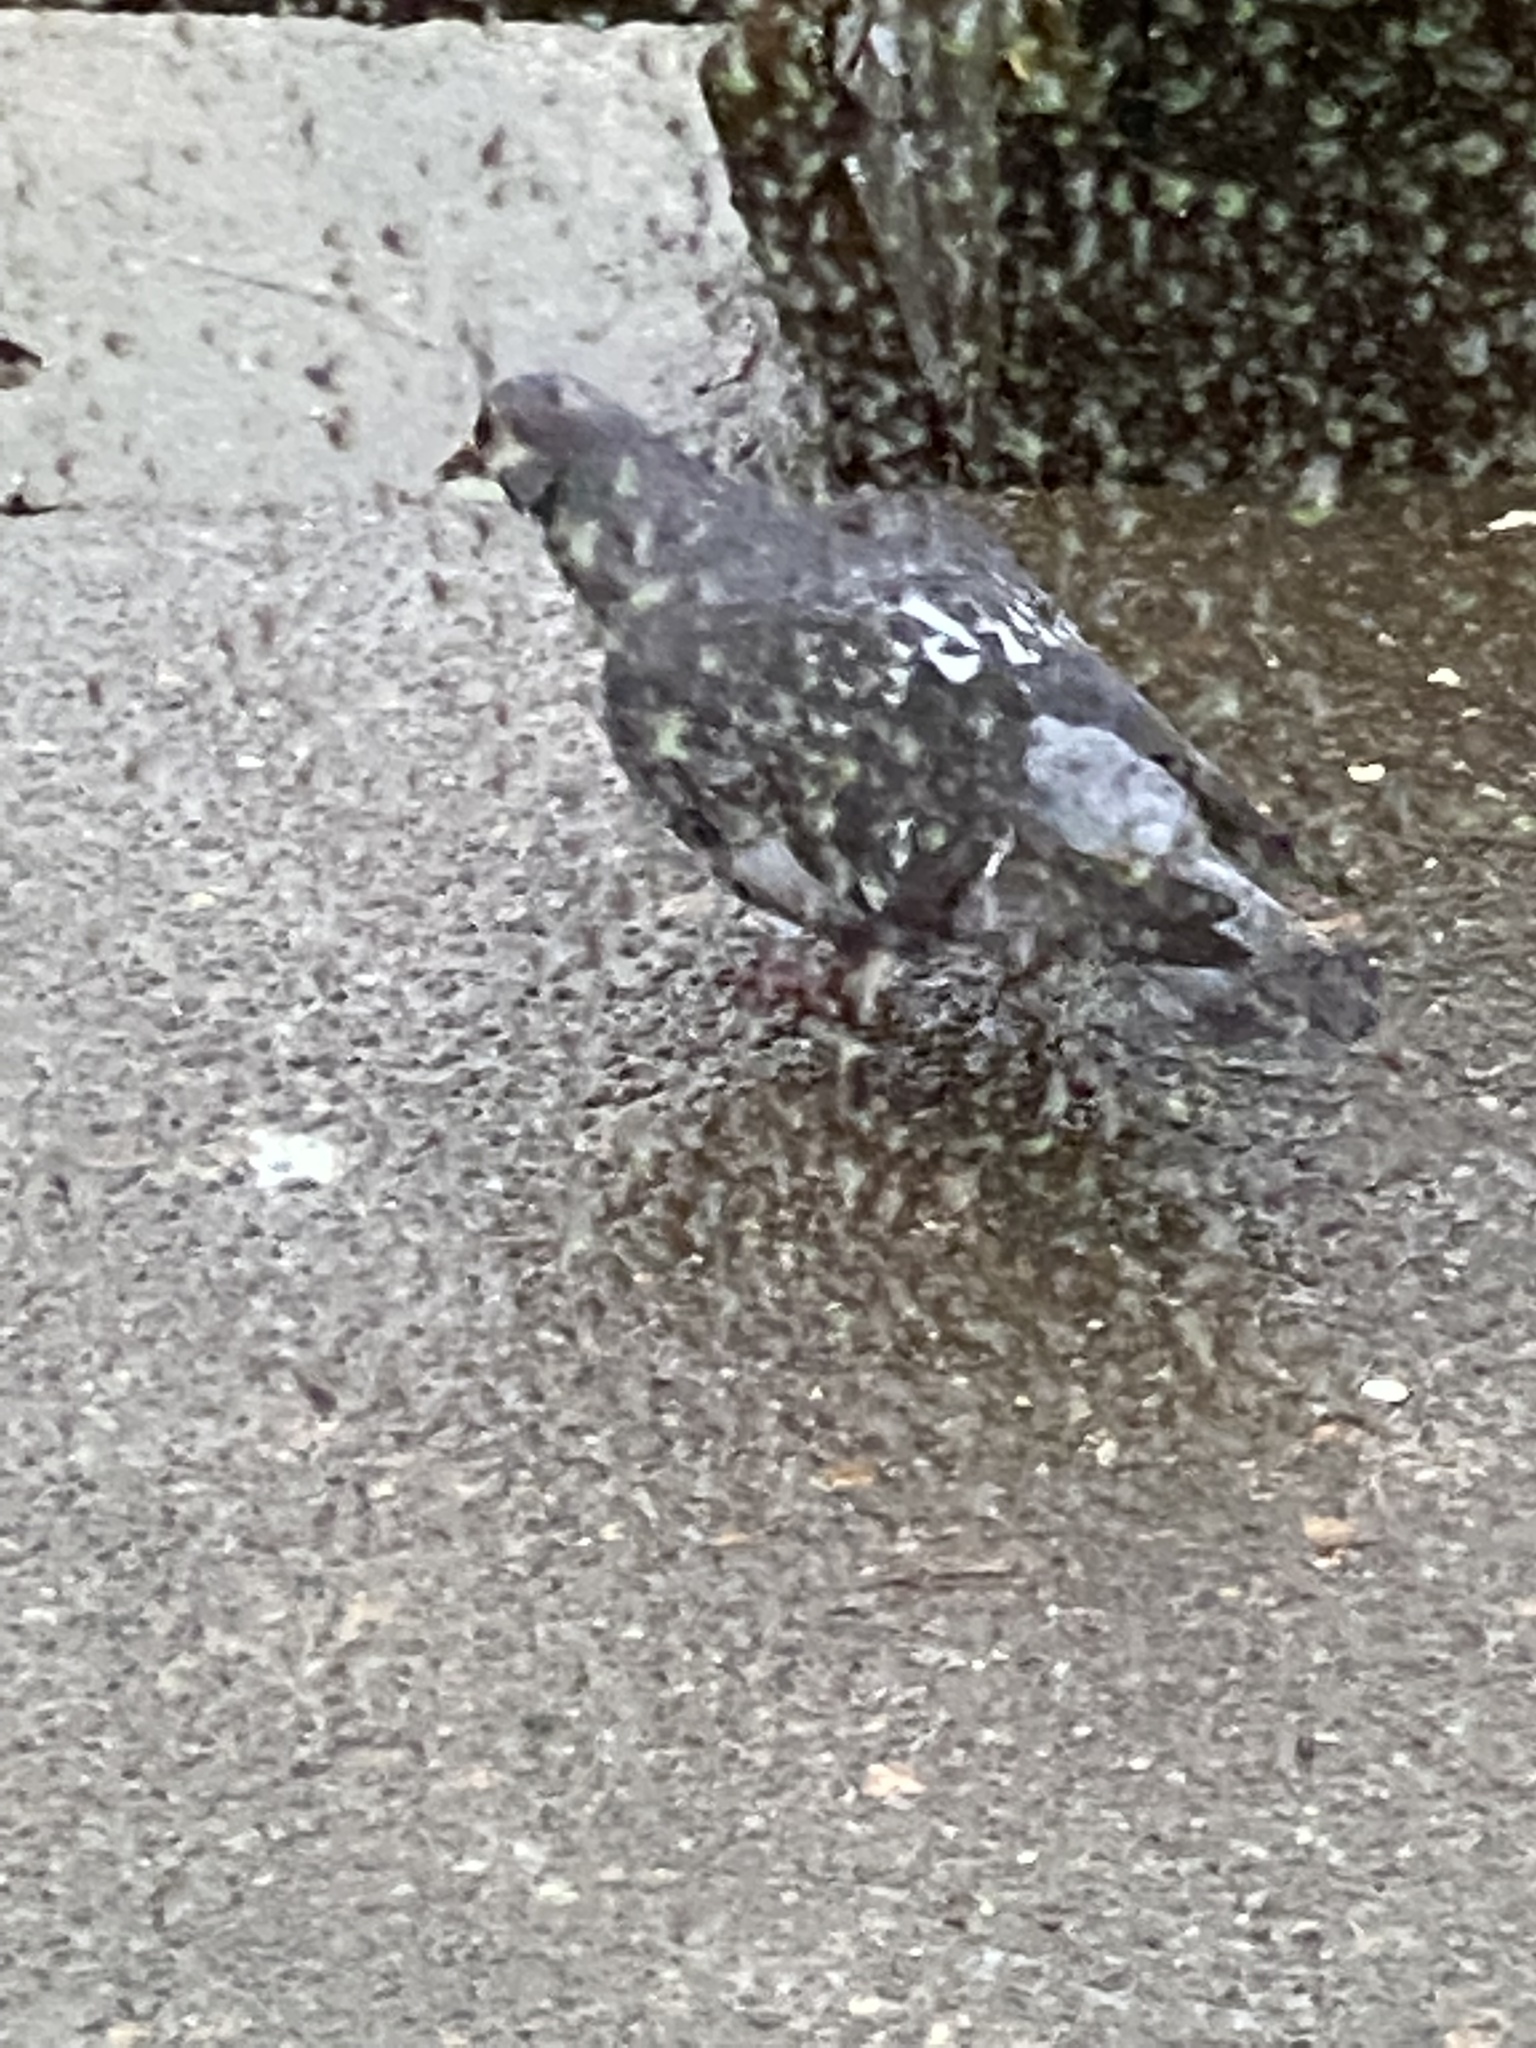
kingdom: Animalia
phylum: Chordata
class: Aves
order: Columbiformes
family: Columbidae
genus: Columba
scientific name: Columba livia
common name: Rock pigeon
